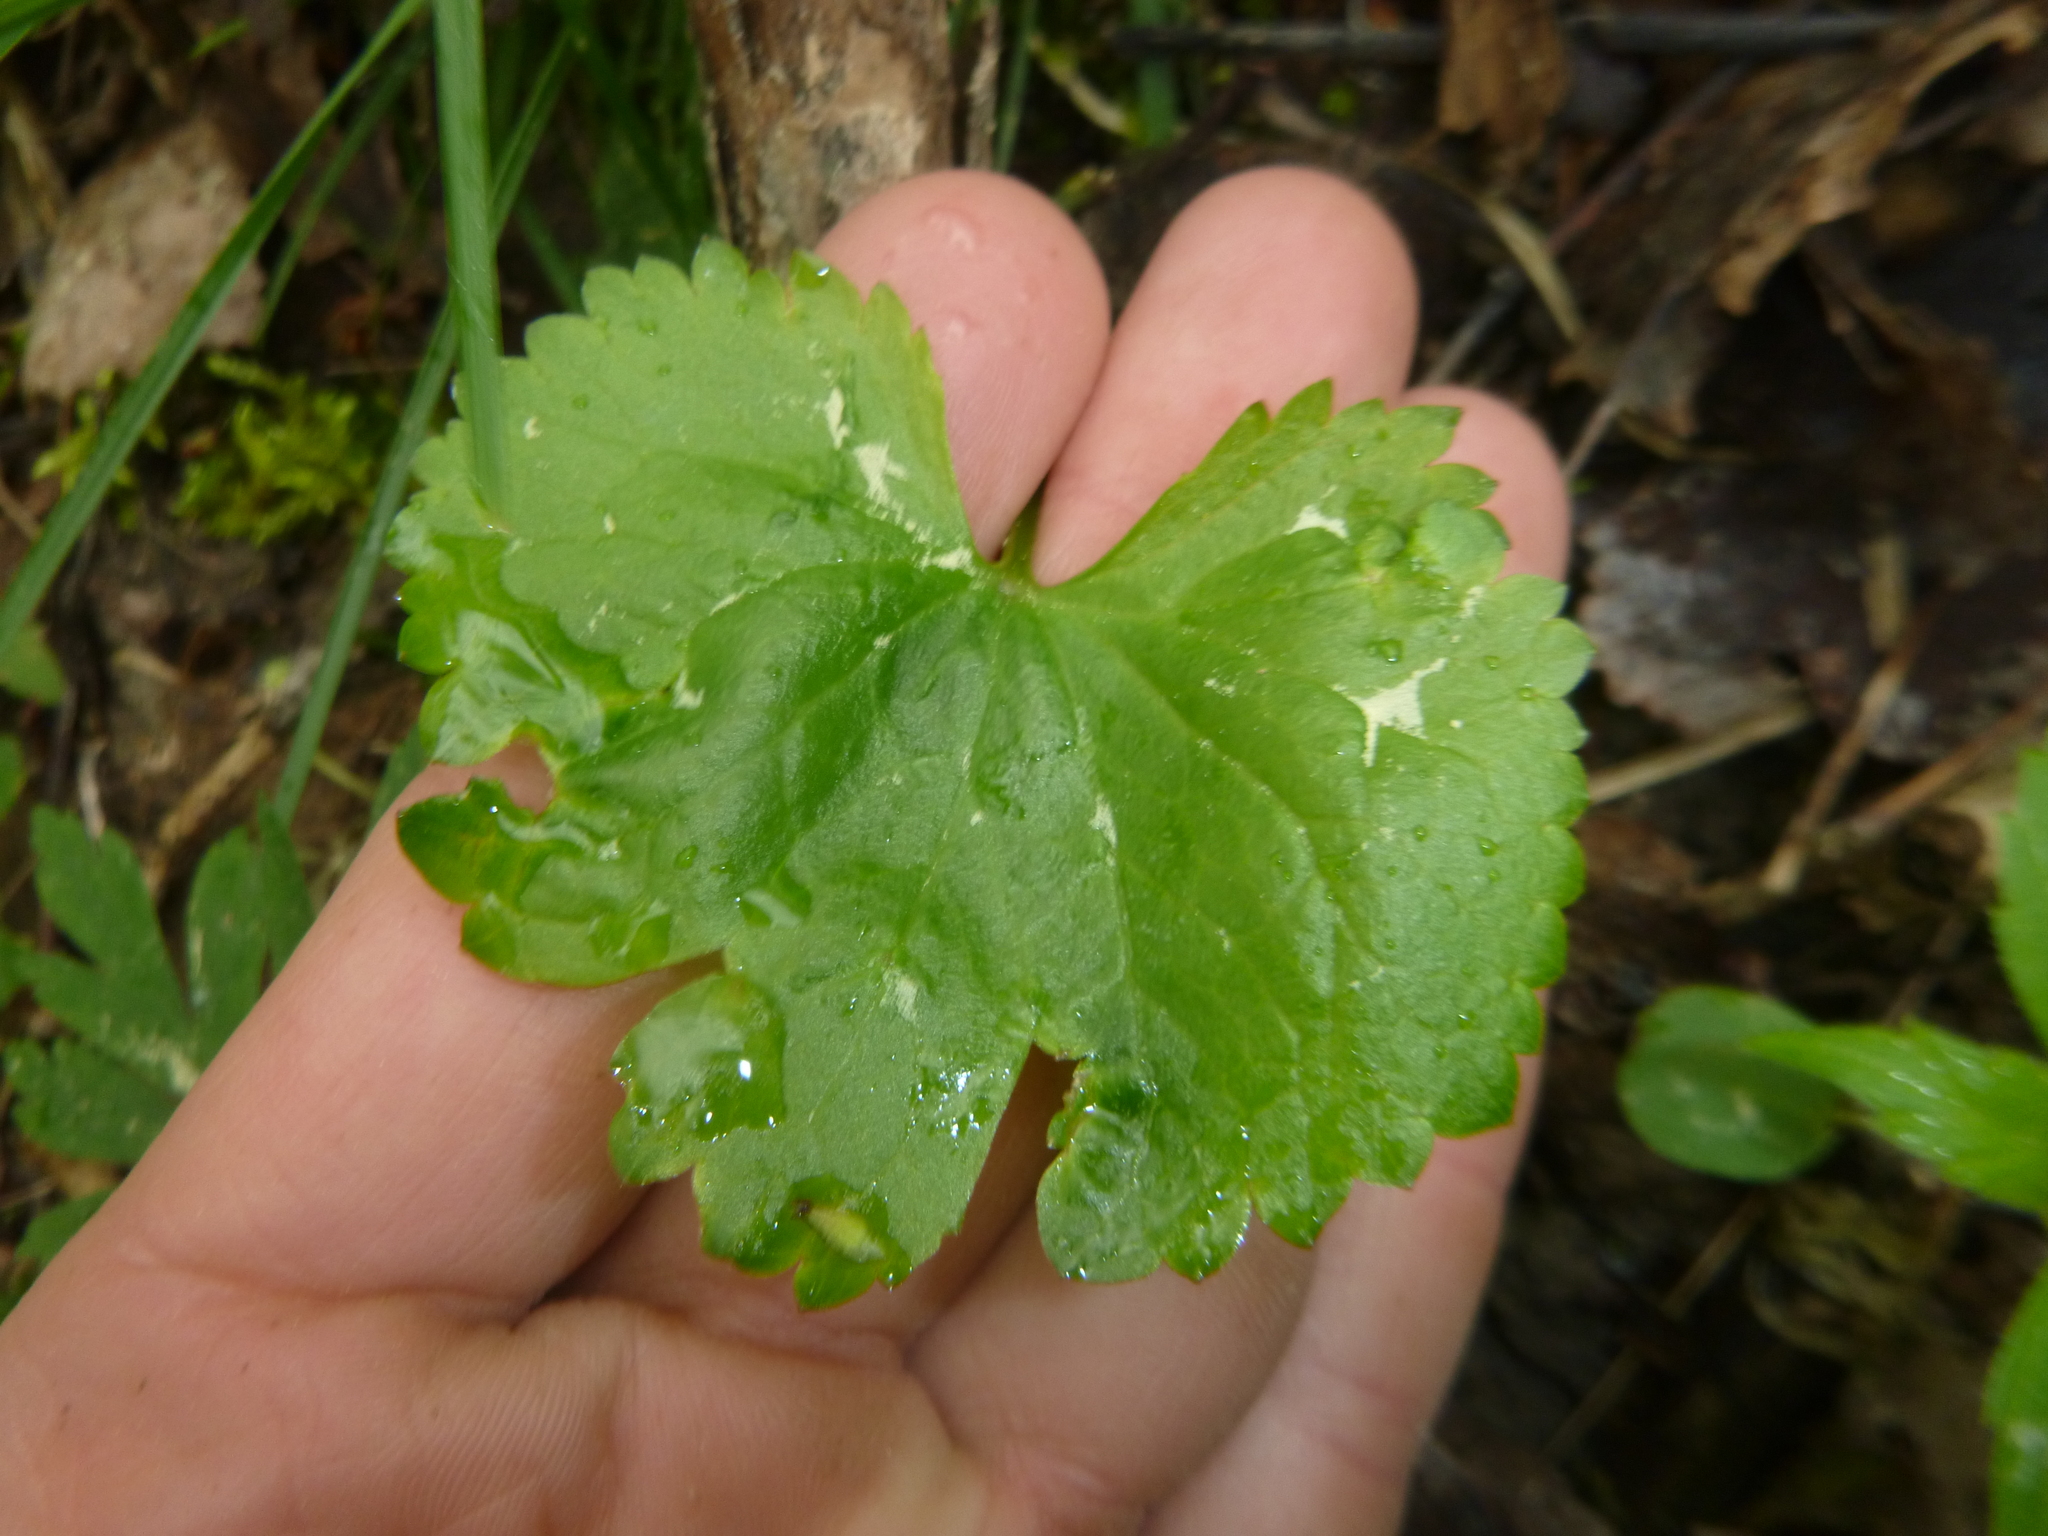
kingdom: Plantae
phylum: Tracheophyta
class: Magnoliopsida
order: Ranunculales
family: Ranunculaceae
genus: Ranunculus
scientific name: Ranunculus auricomus
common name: Goldilocks buttercup
